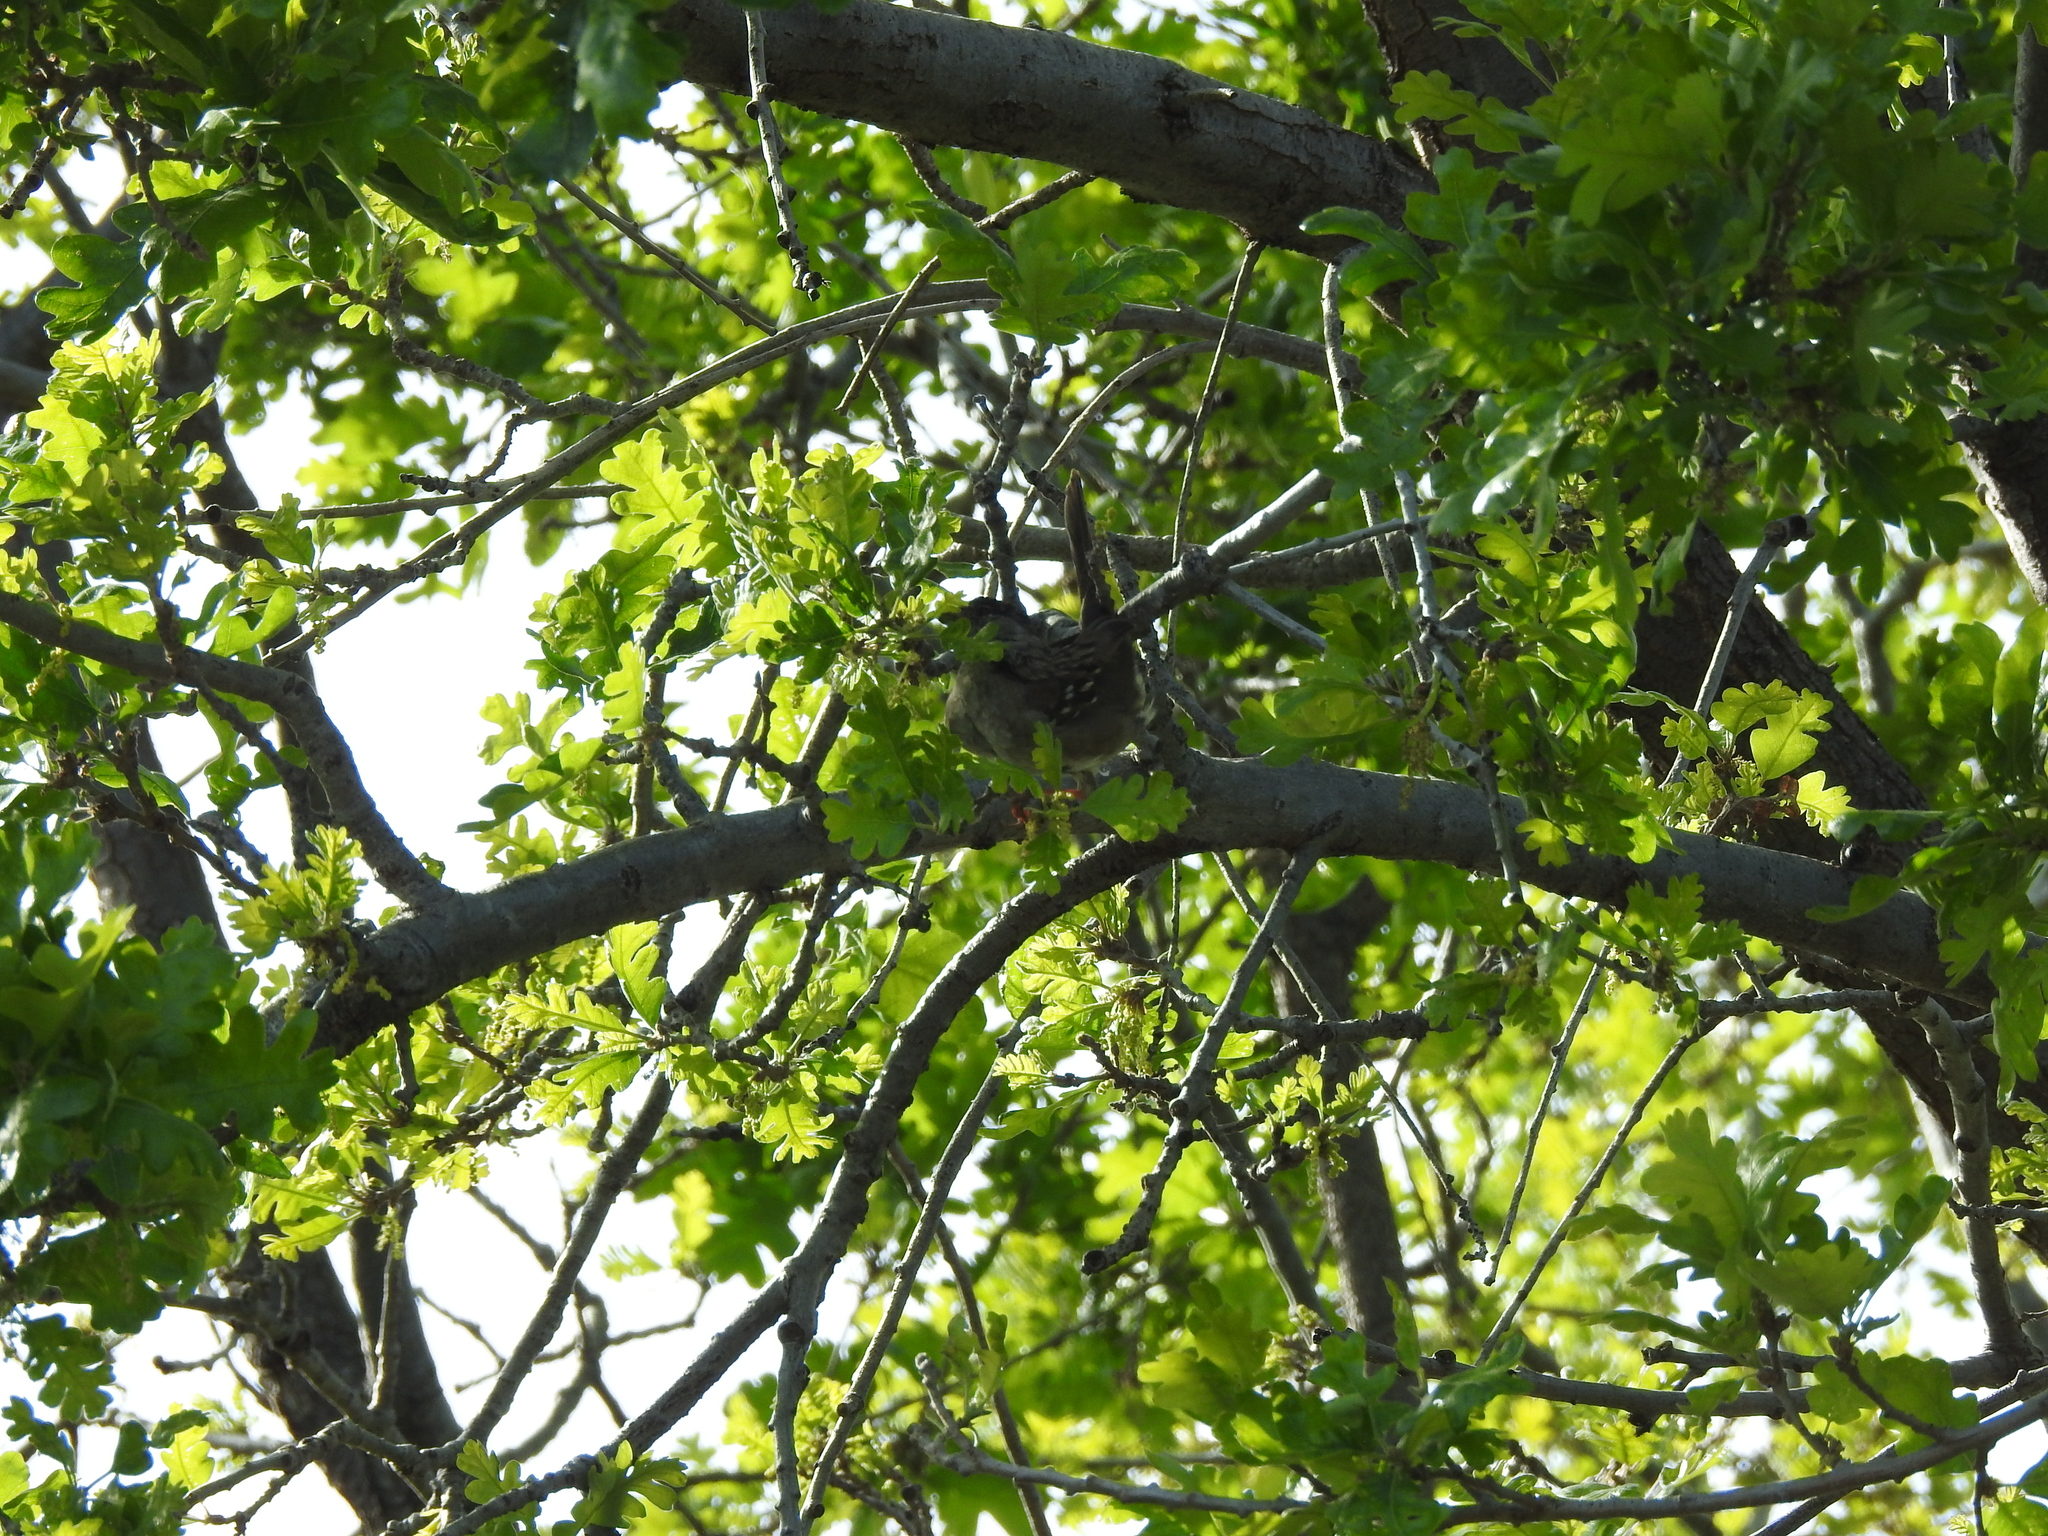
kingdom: Animalia
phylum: Chordata
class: Aves
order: Passeriformes
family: Passerellidae
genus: Zonotrichia
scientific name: Zonotrichia atricapilla
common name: Golden-crowned sparrow
